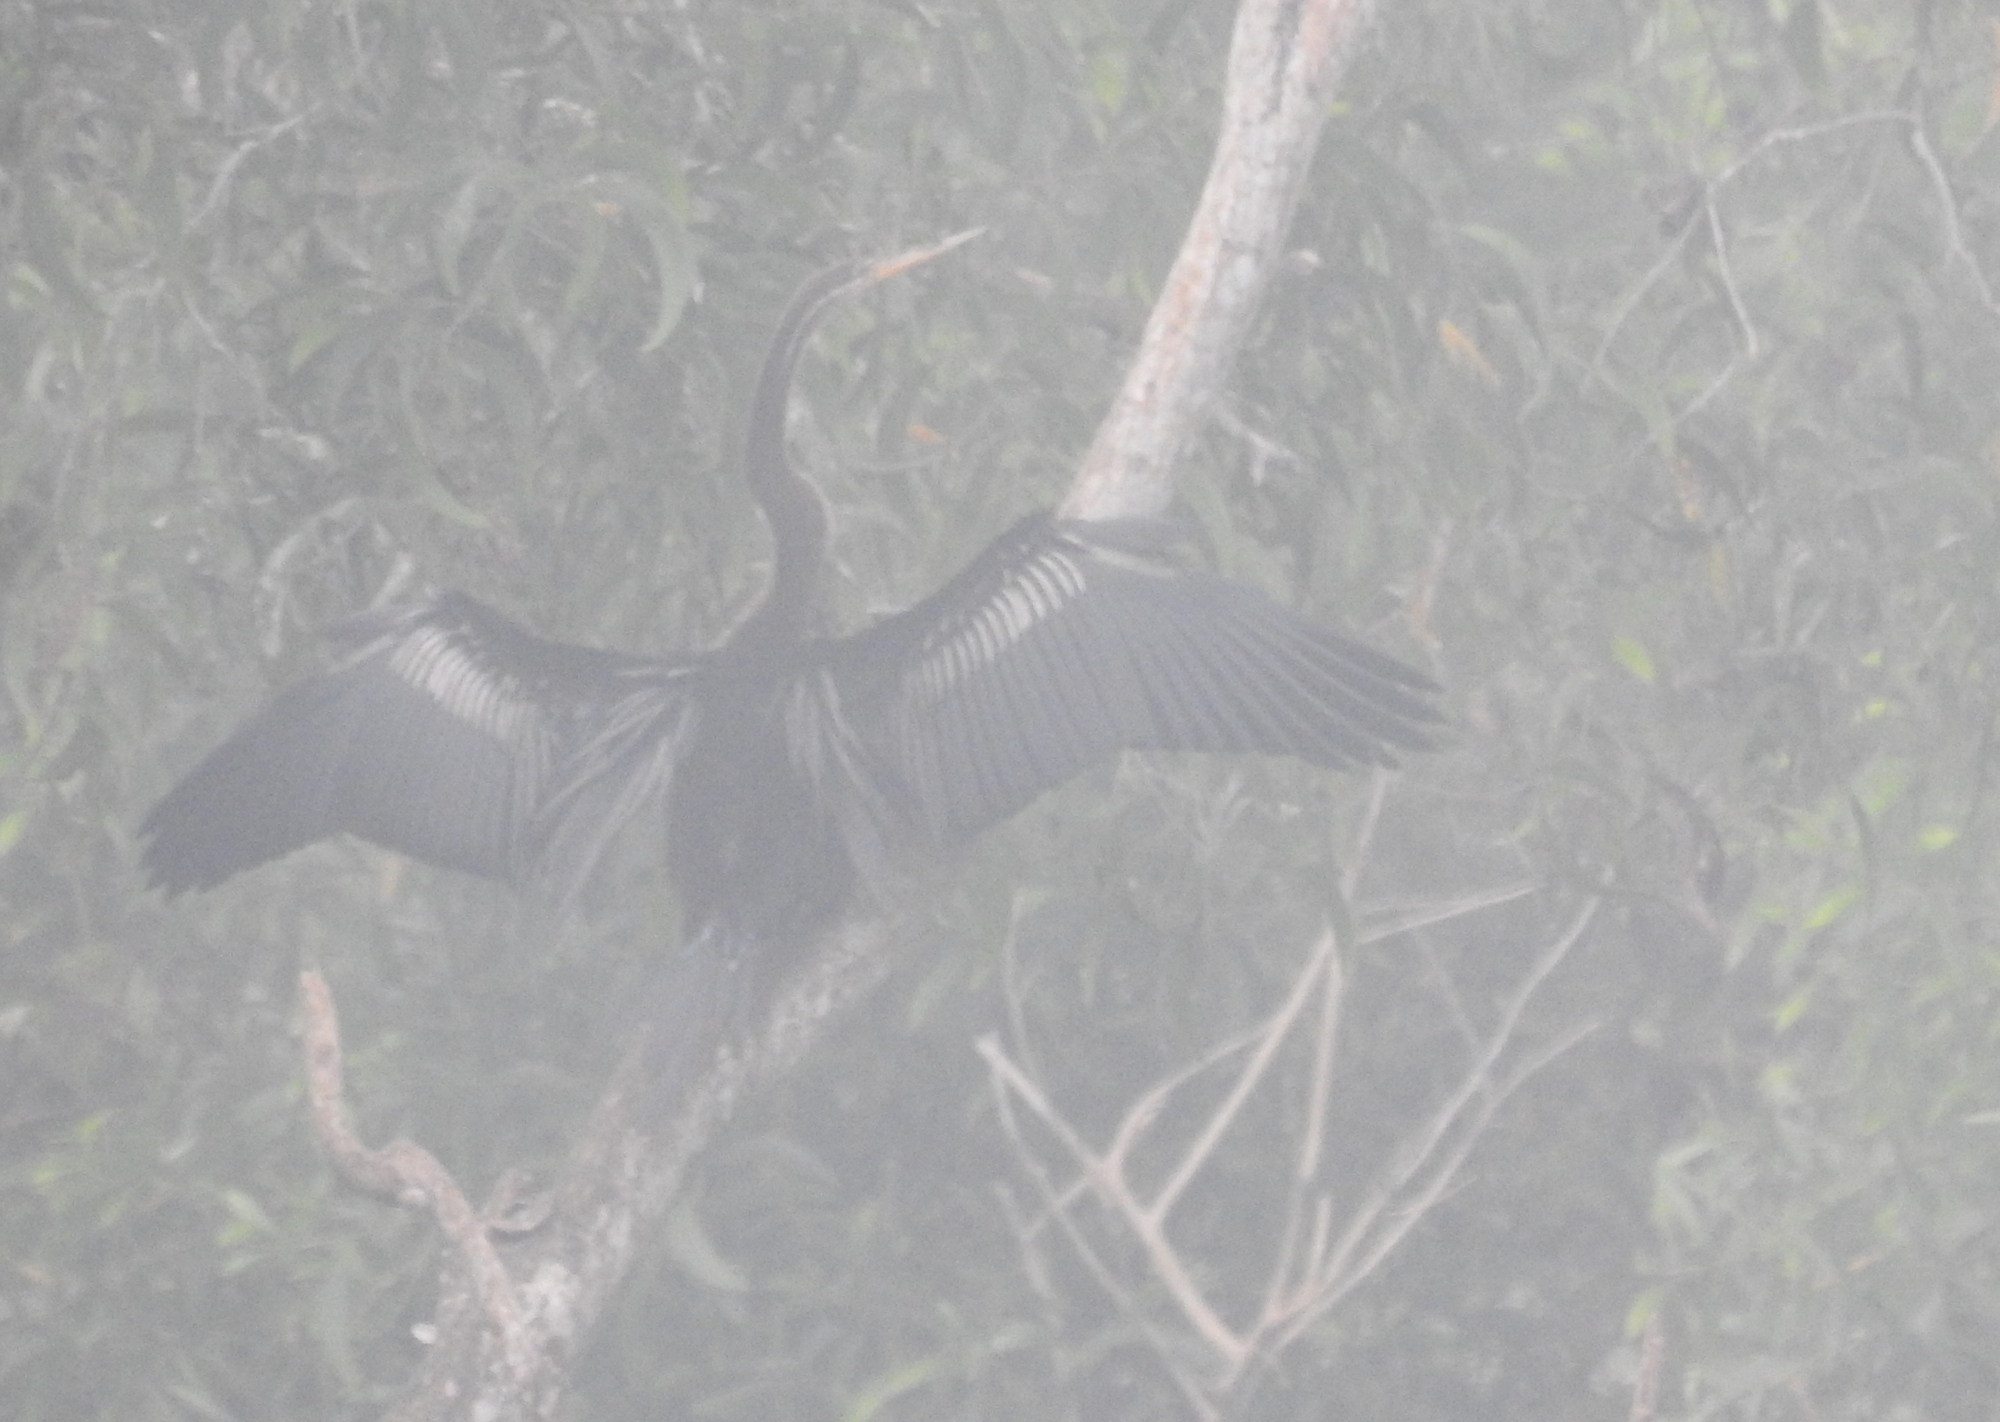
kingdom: Animalia
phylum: Chordata
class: Aves
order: Suliformes
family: Anhingidae
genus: Anhinga
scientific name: Anhinga melanogaster
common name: Oriental darter
